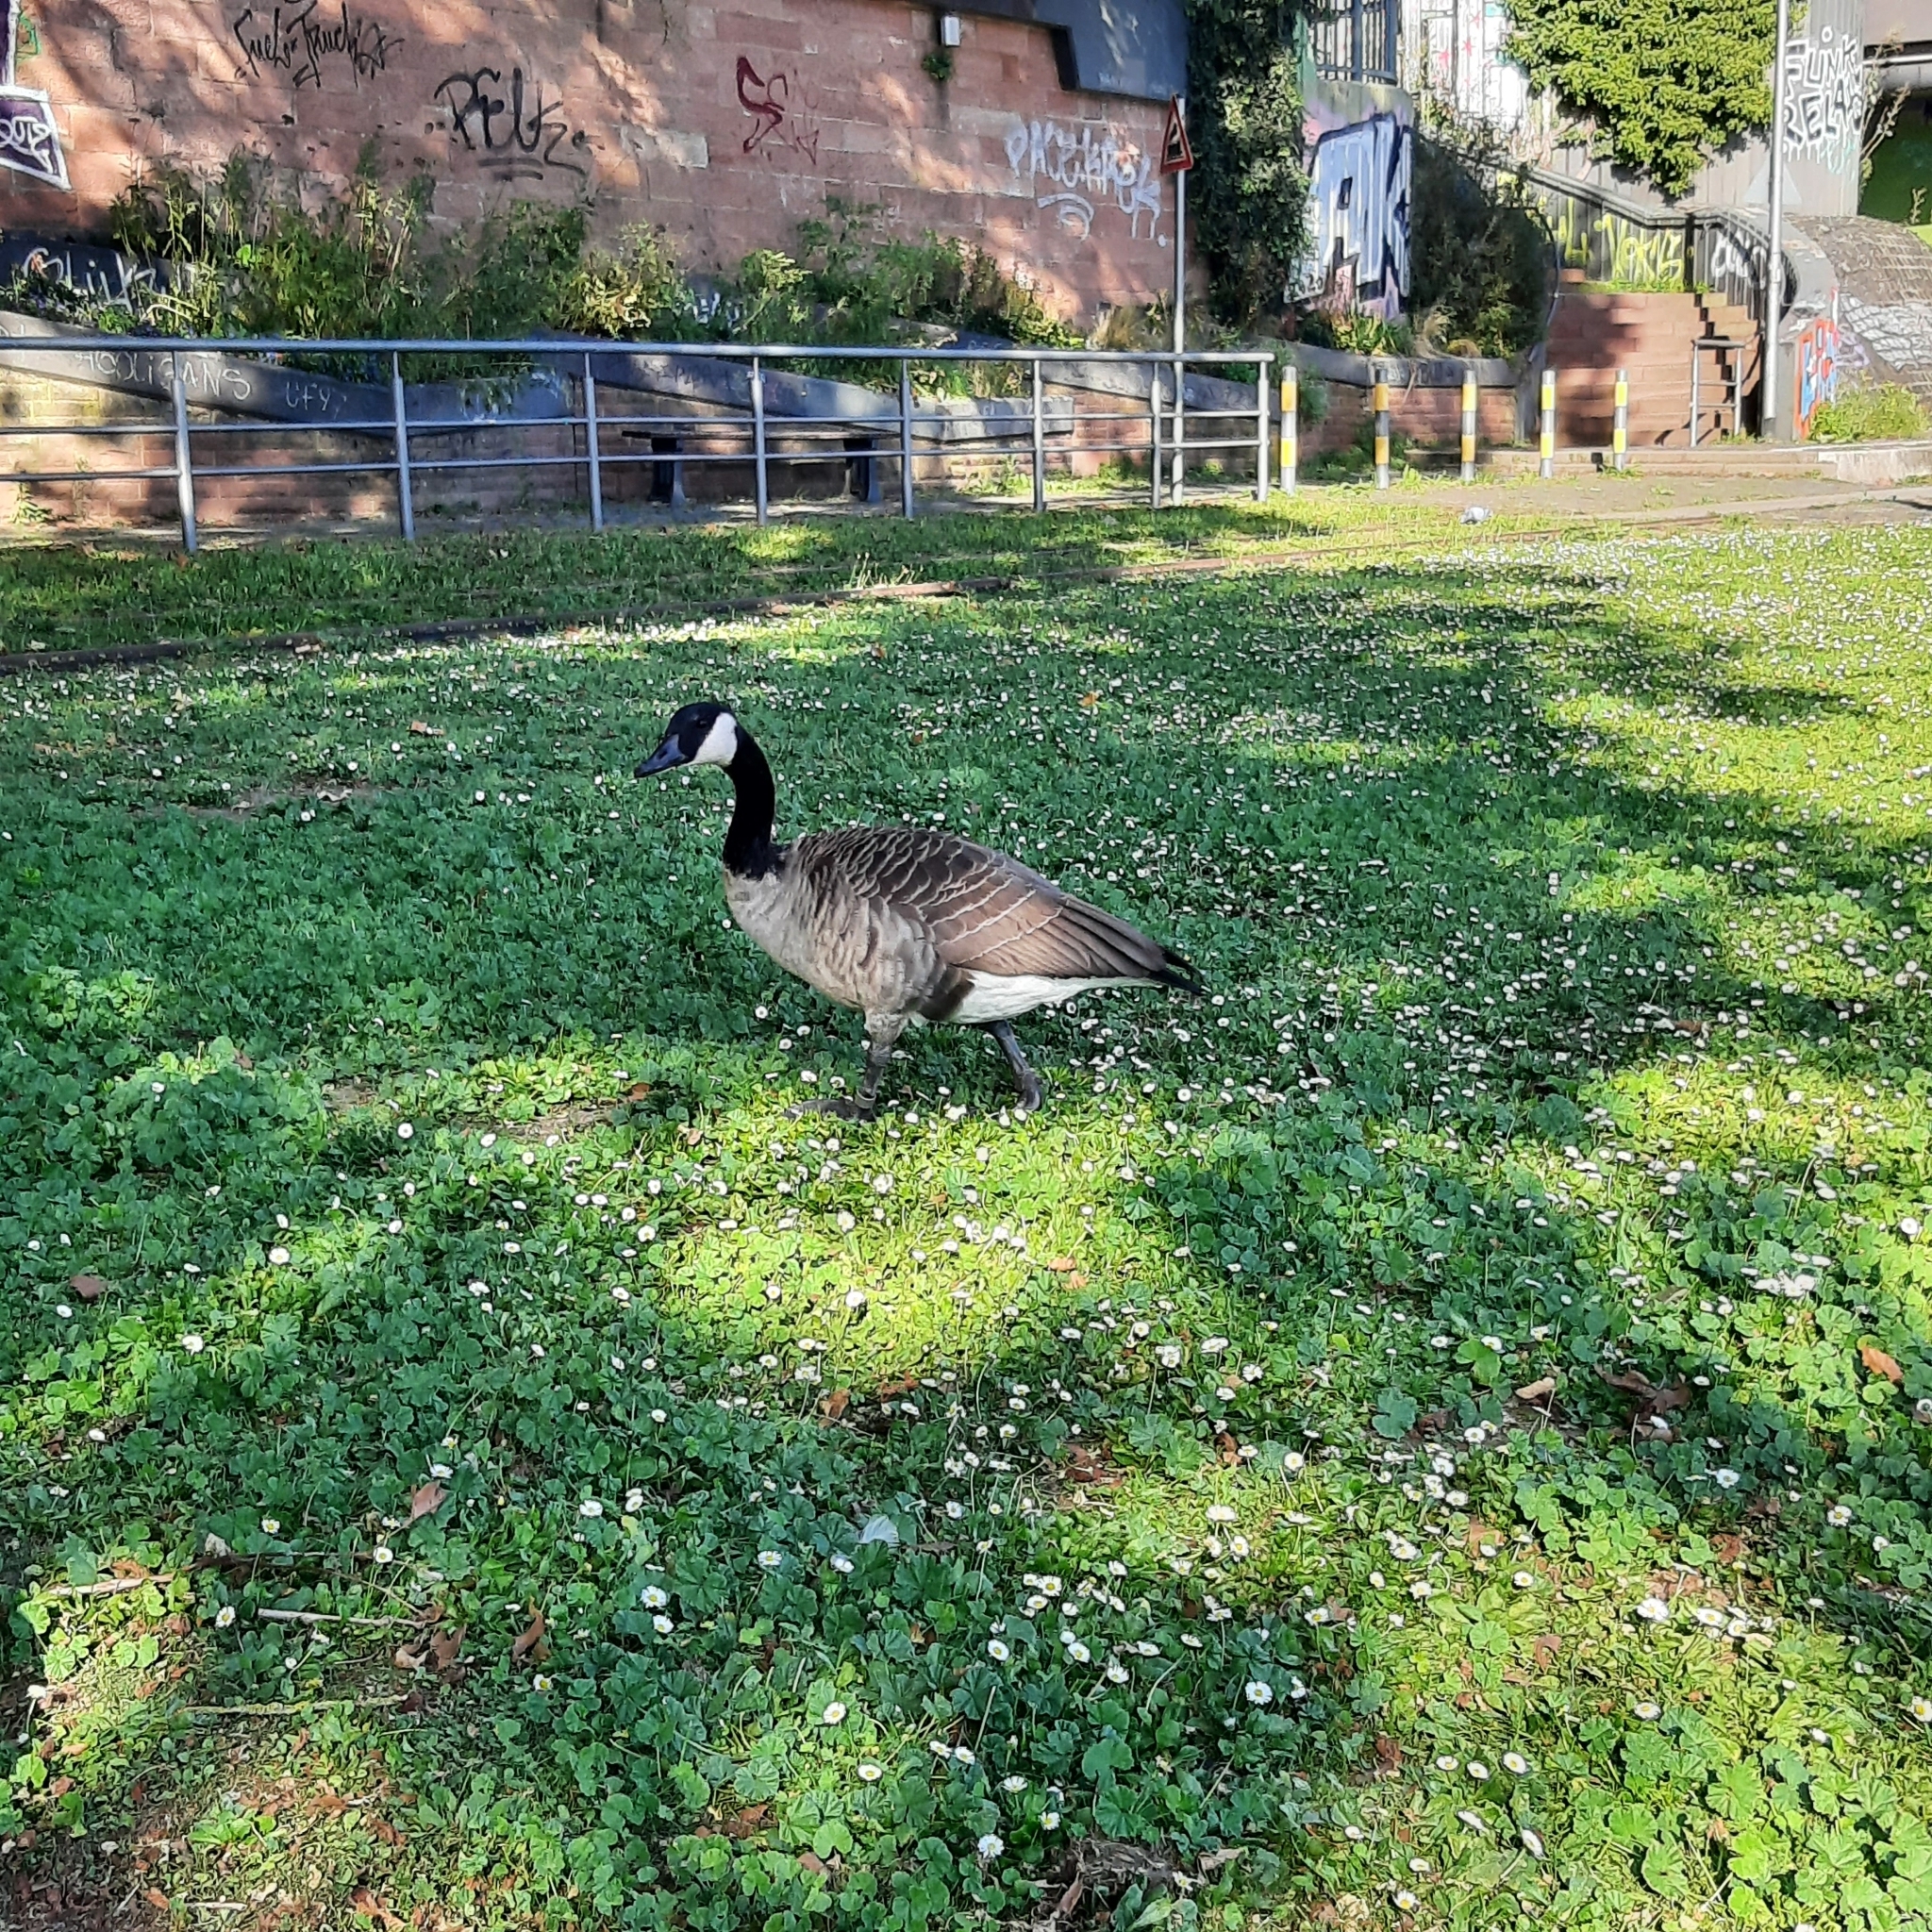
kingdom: Animalia
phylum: Chordata
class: Aves
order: Anseriformes
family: Anatidae
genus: Branta
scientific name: Branta canadensis
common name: Canada goose
